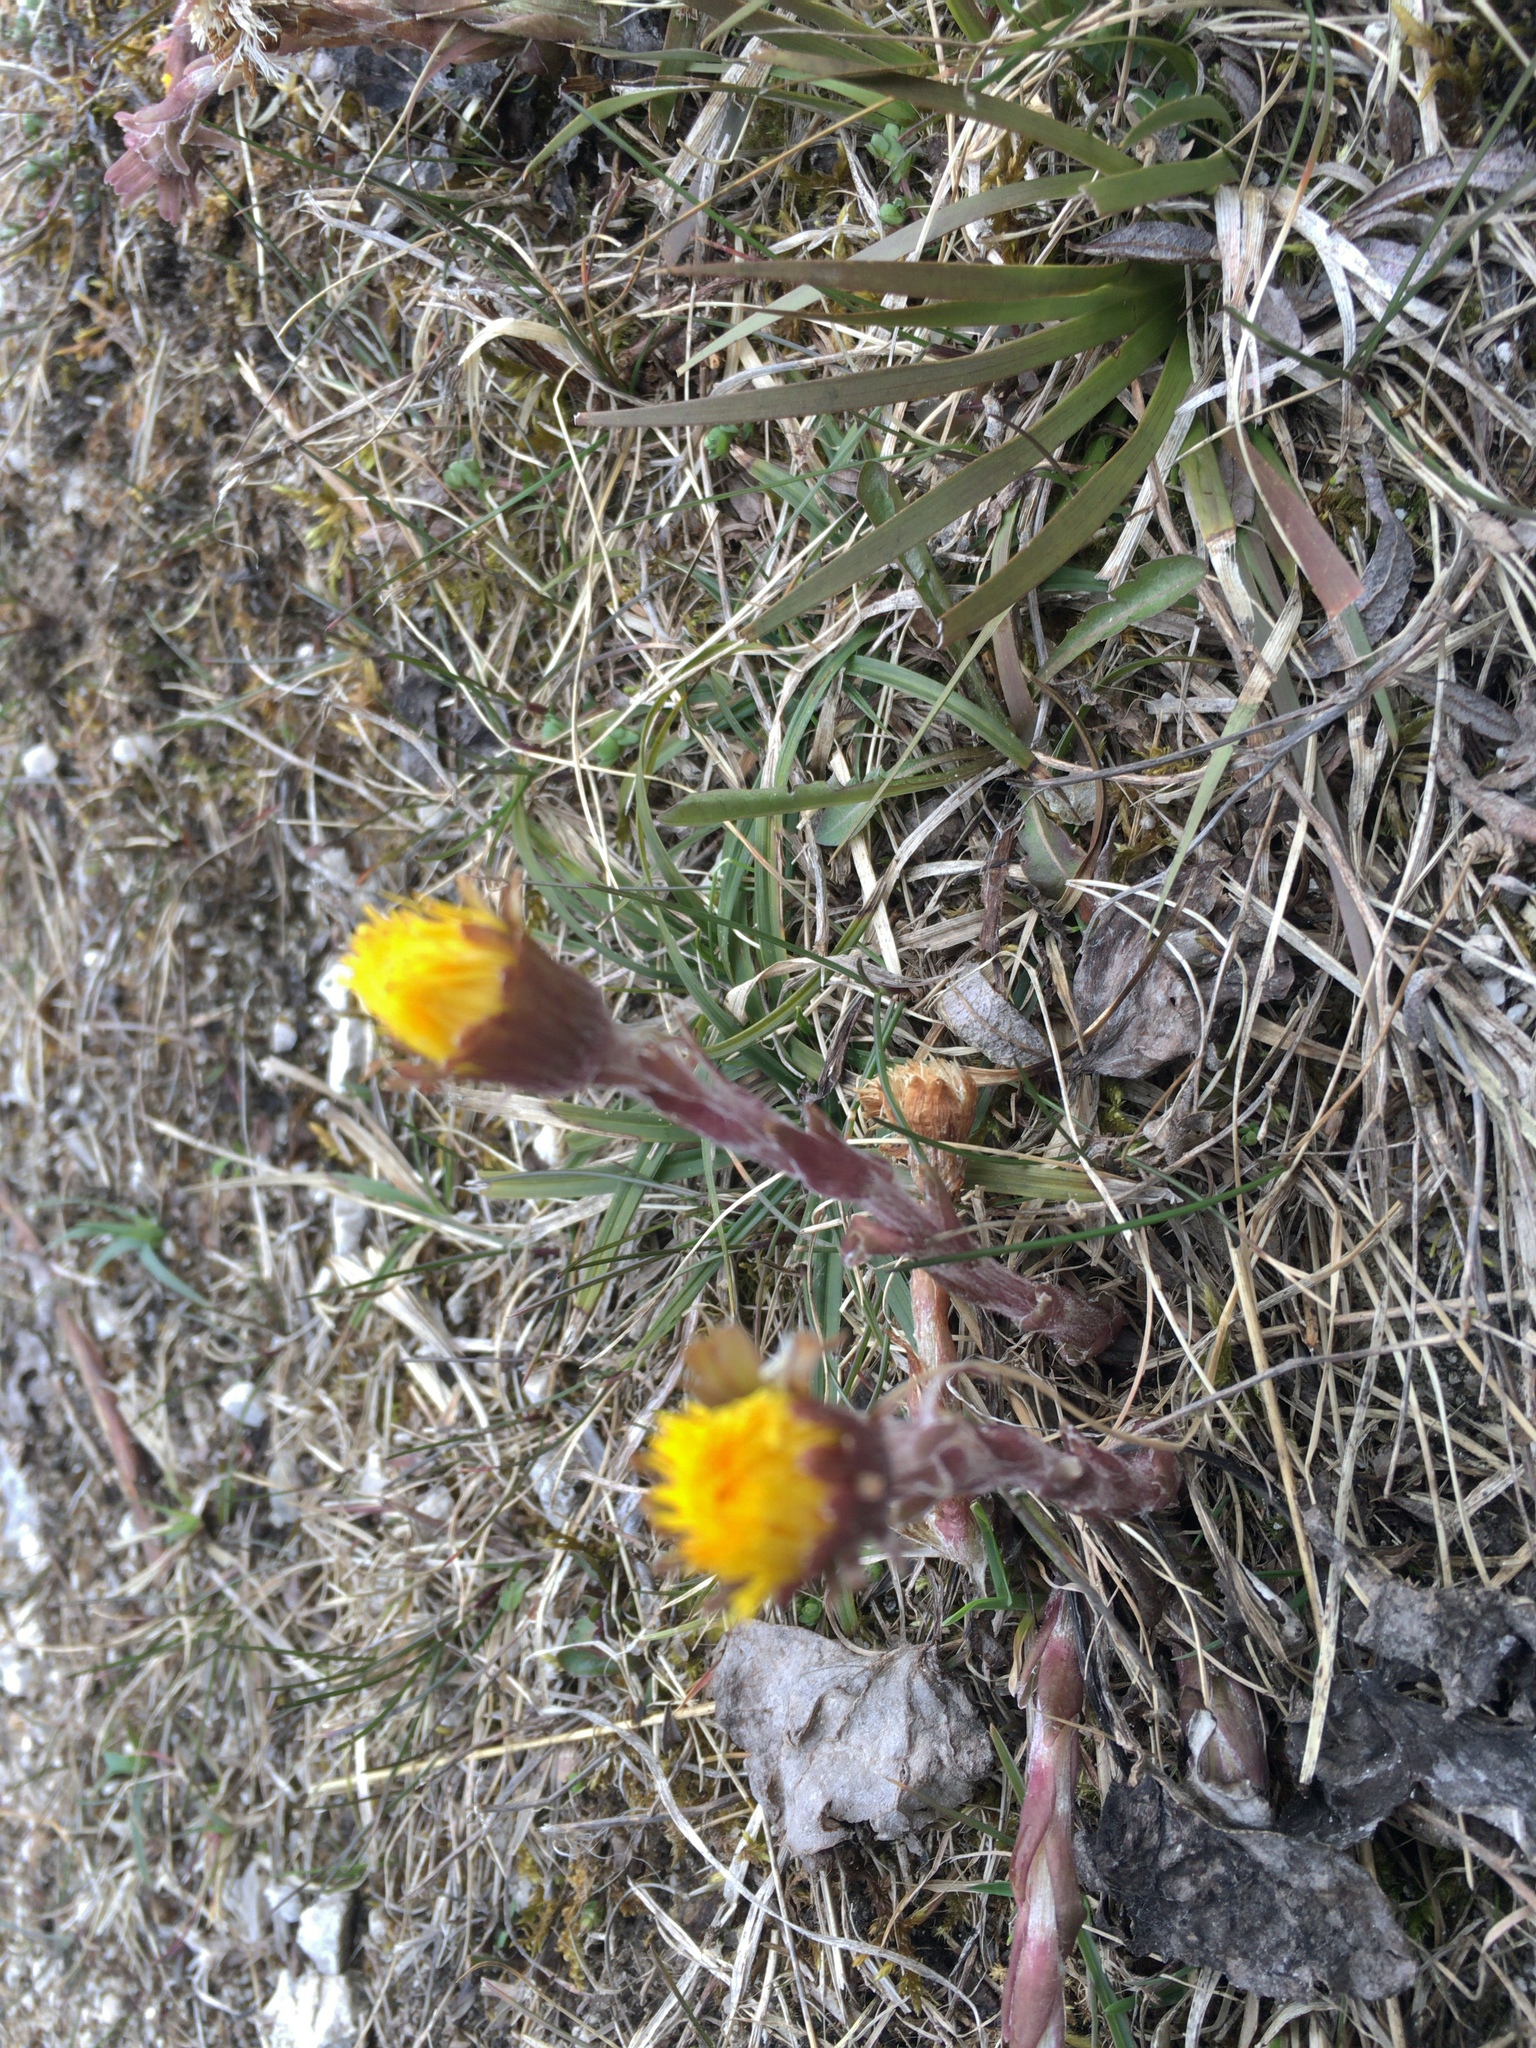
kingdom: Plantae
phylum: Tracheophyta
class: Magnoliopsida
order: Asterales
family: Asteraceae
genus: Tussilago
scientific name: Tussilago farfara
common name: Coltsfoot
